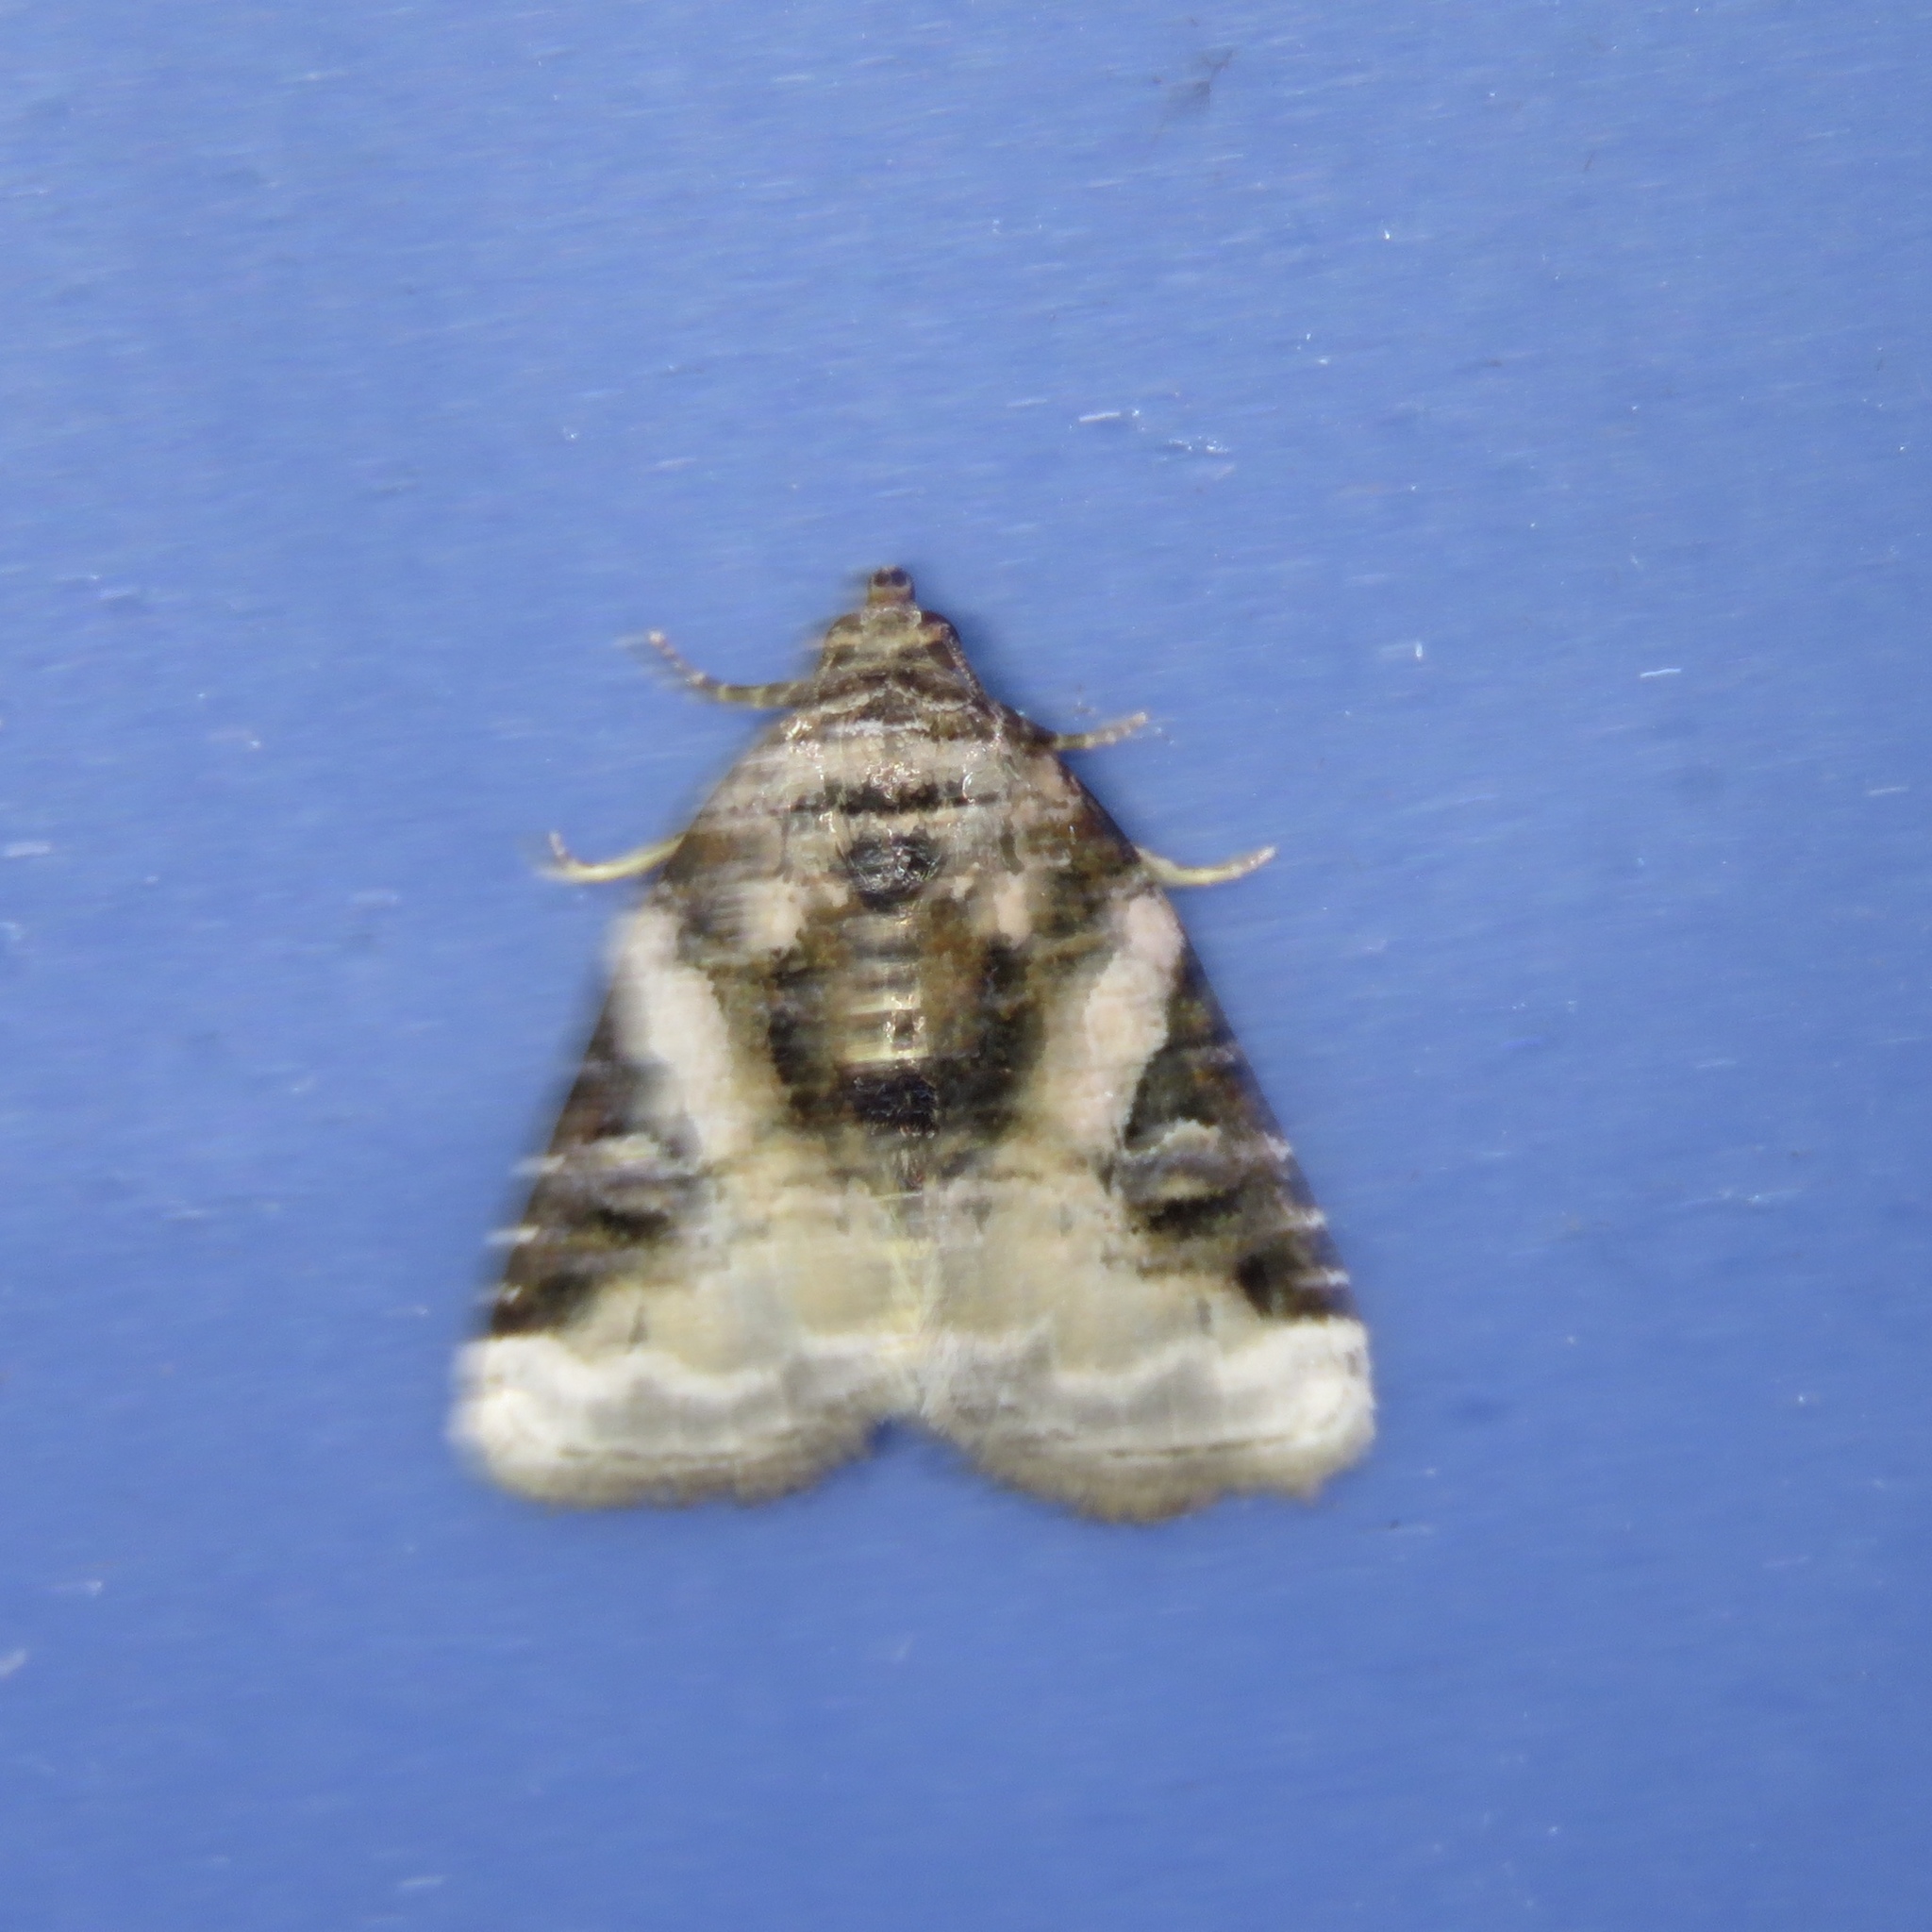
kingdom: Animalia
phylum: Arthropoda
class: Insecta
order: Lepidoptera
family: Noctuidae
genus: Pseudeustrotia
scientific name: Pseudeustrotia carneola
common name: Pink-barred lithacodia moth
